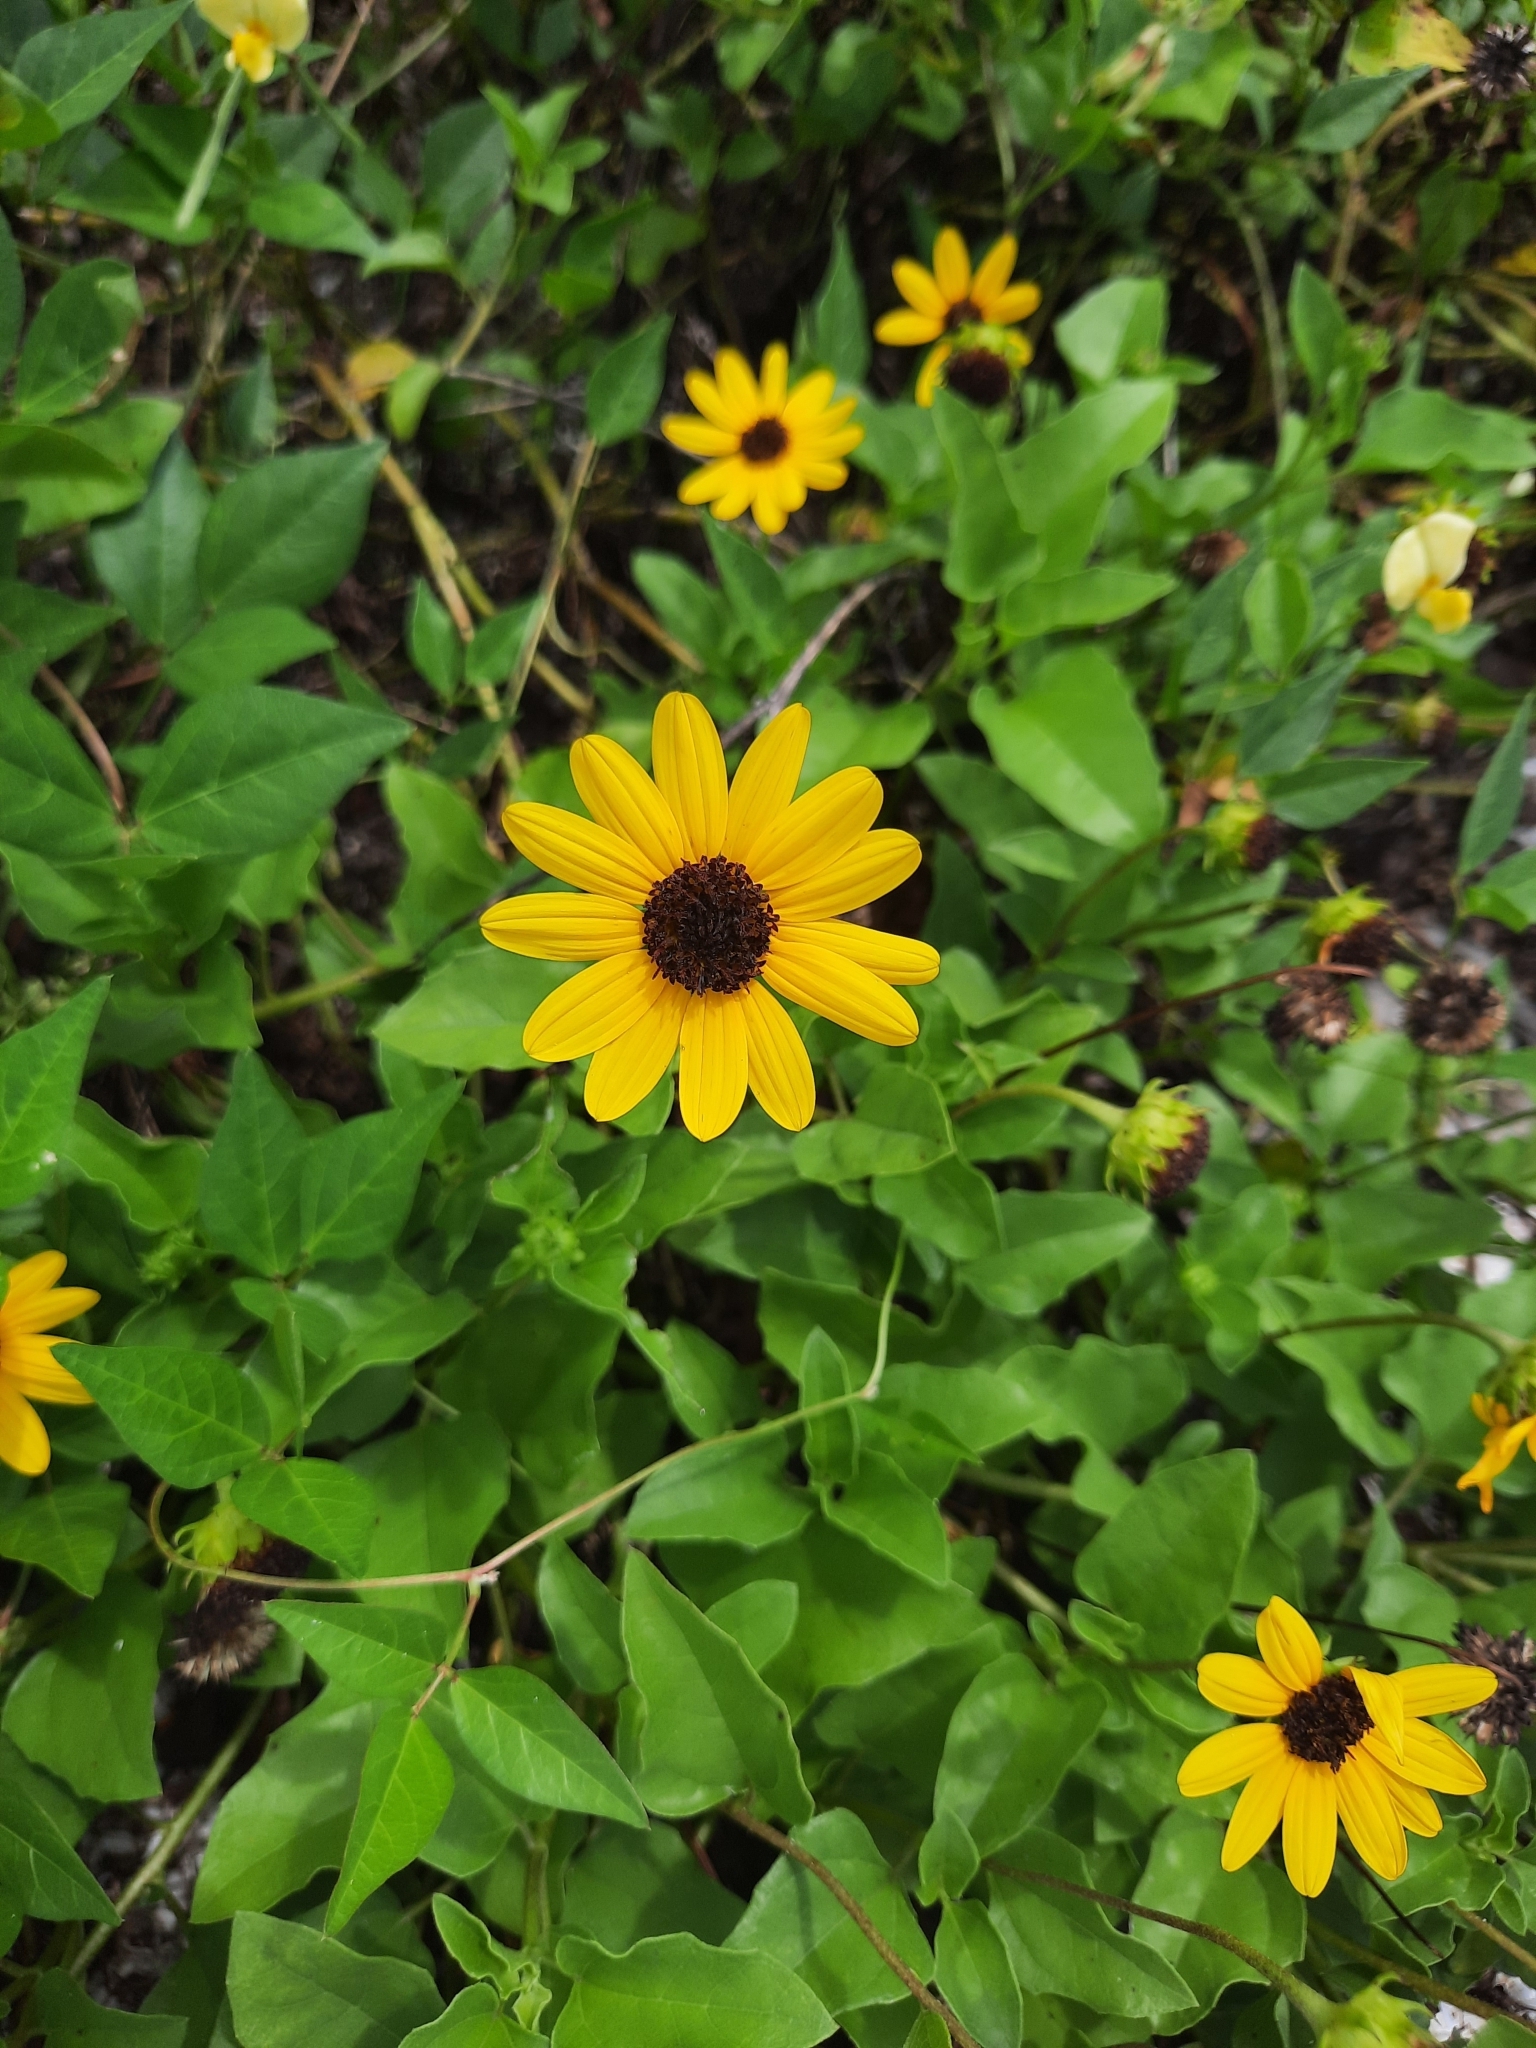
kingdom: Plantae
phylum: Tracheophyta
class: Magnoliopsida
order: Asterales
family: Asteraceae
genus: Helianthus
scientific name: Helianthus debilis
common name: Weak sunflower
